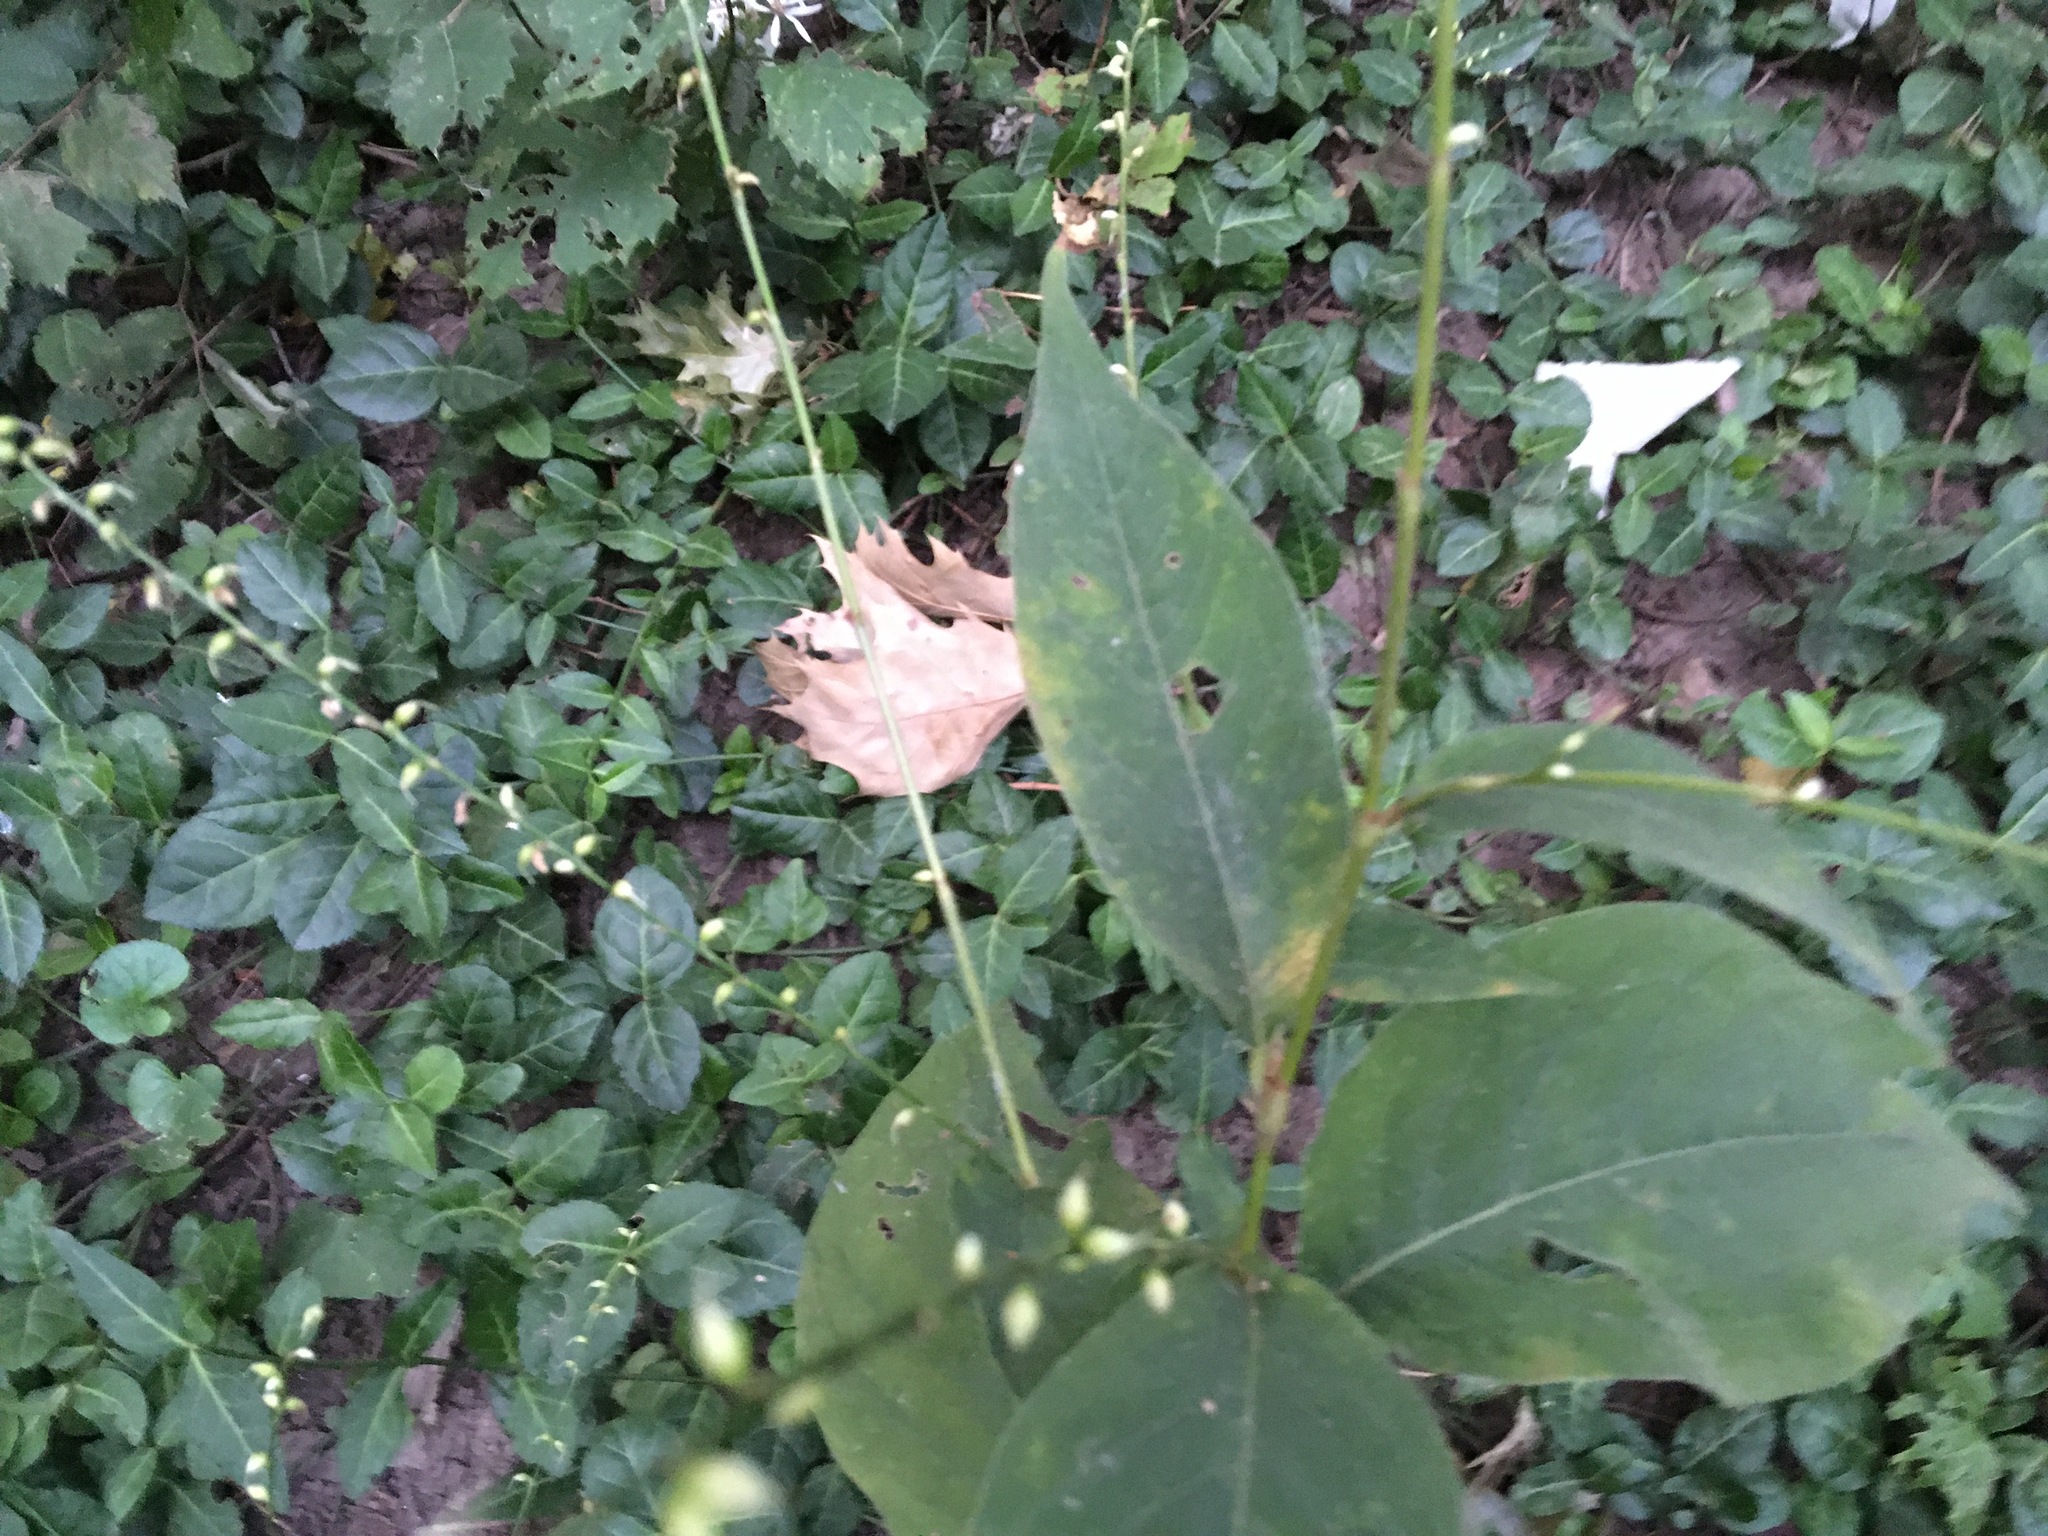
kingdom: Plantae
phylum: Tracheophyta
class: Magnoliopsida
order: Caryophyllales
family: Polygonaceae
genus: Persicaria
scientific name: Persicaria virginiana
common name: Jumpseed
